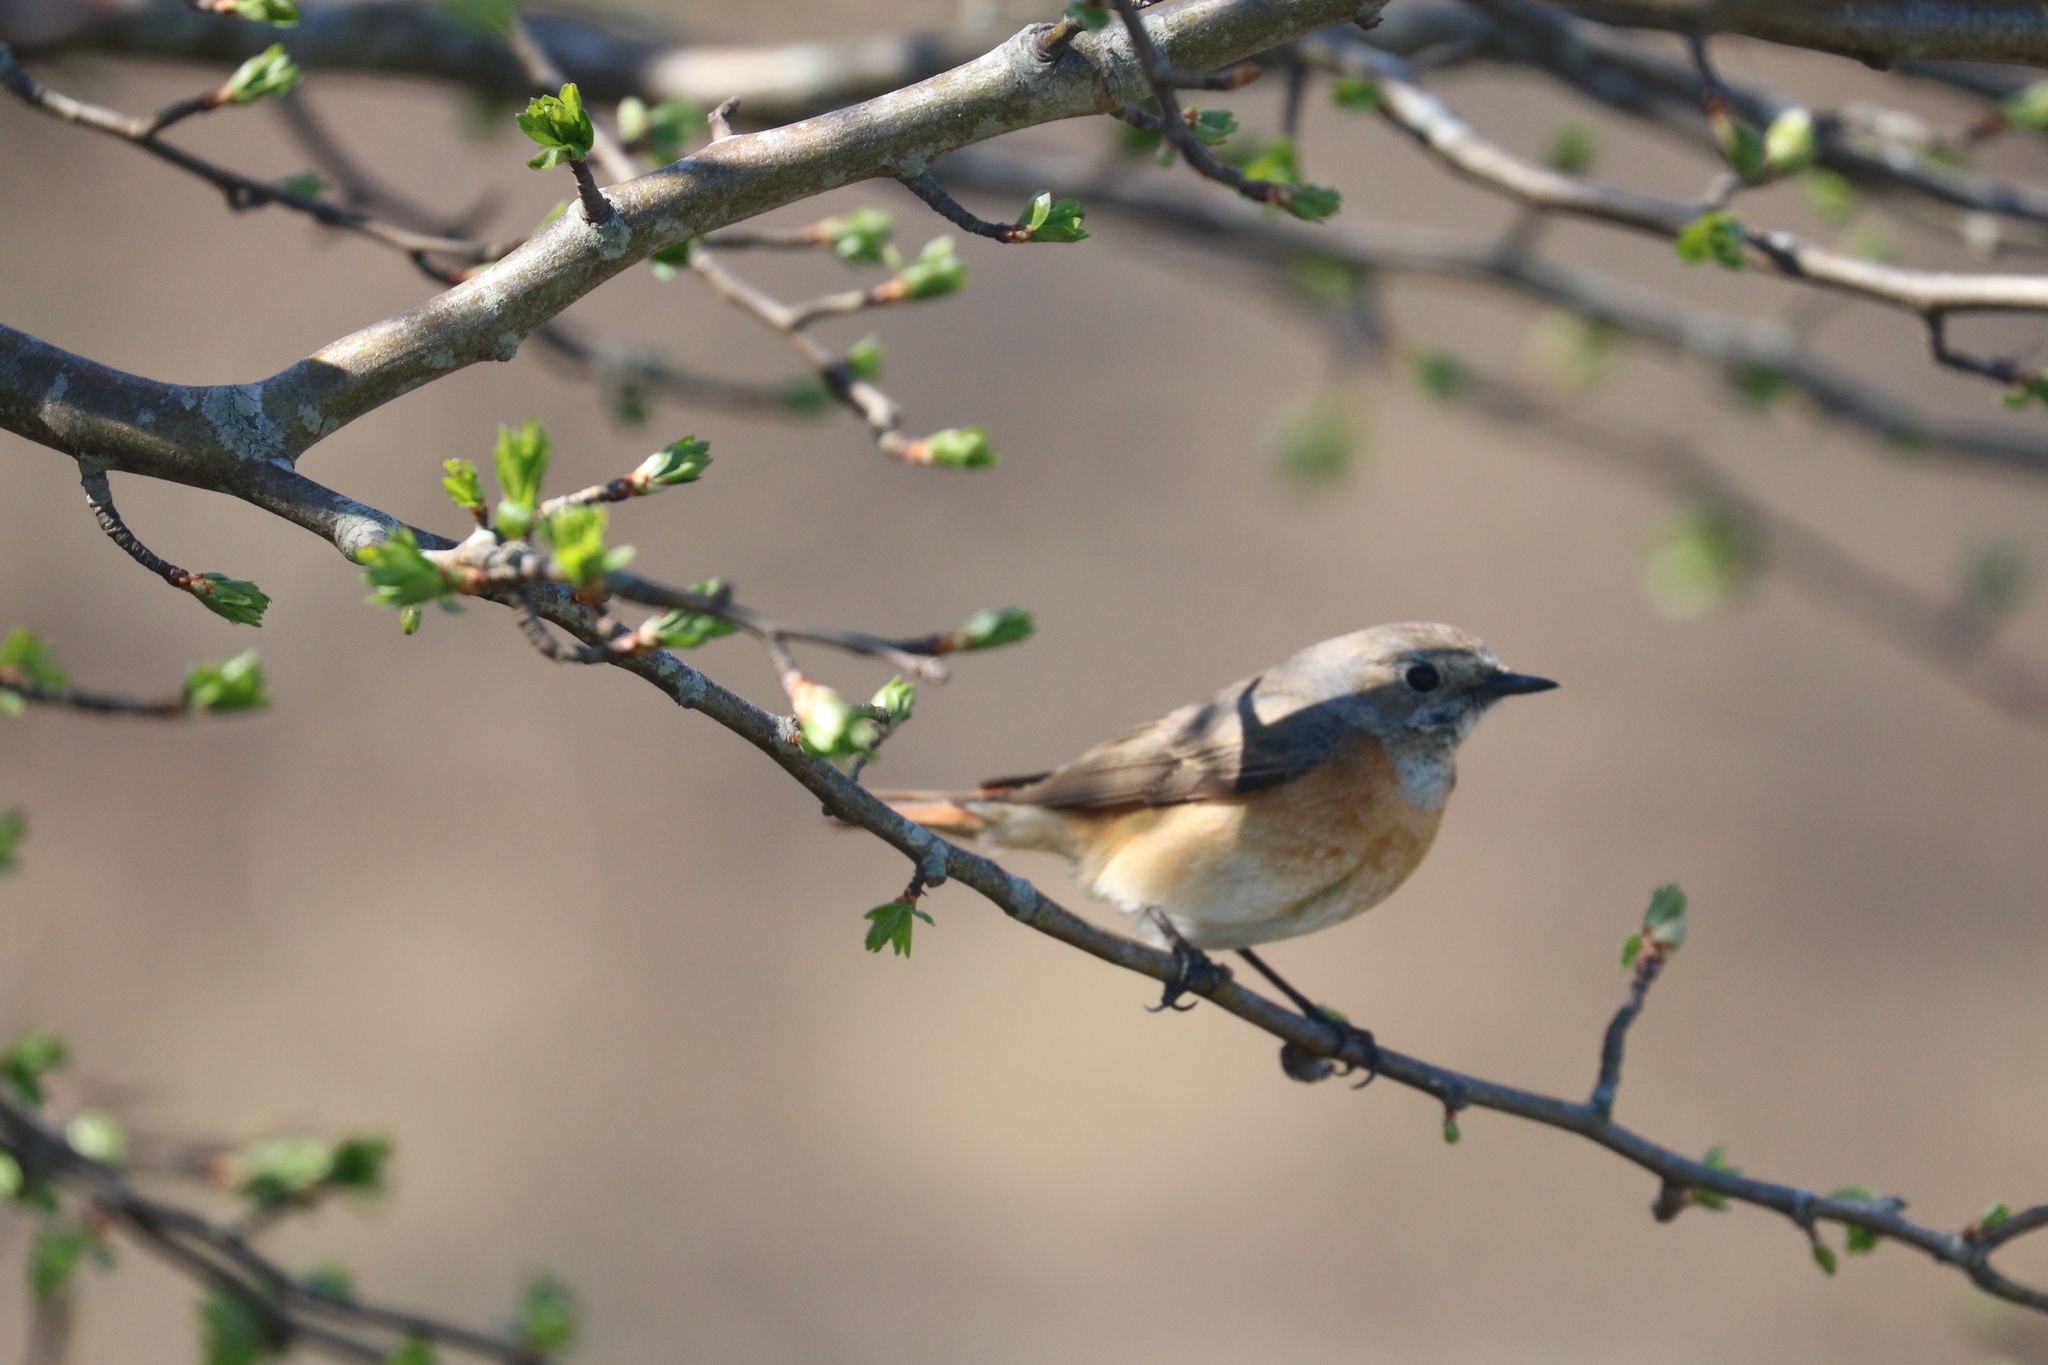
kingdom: Animalia
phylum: Chordata
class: Aves
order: Passeriformes
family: Muscicapidae
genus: Phoenicurus
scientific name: Phoenicurus phoenicurus
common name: Common redstart
